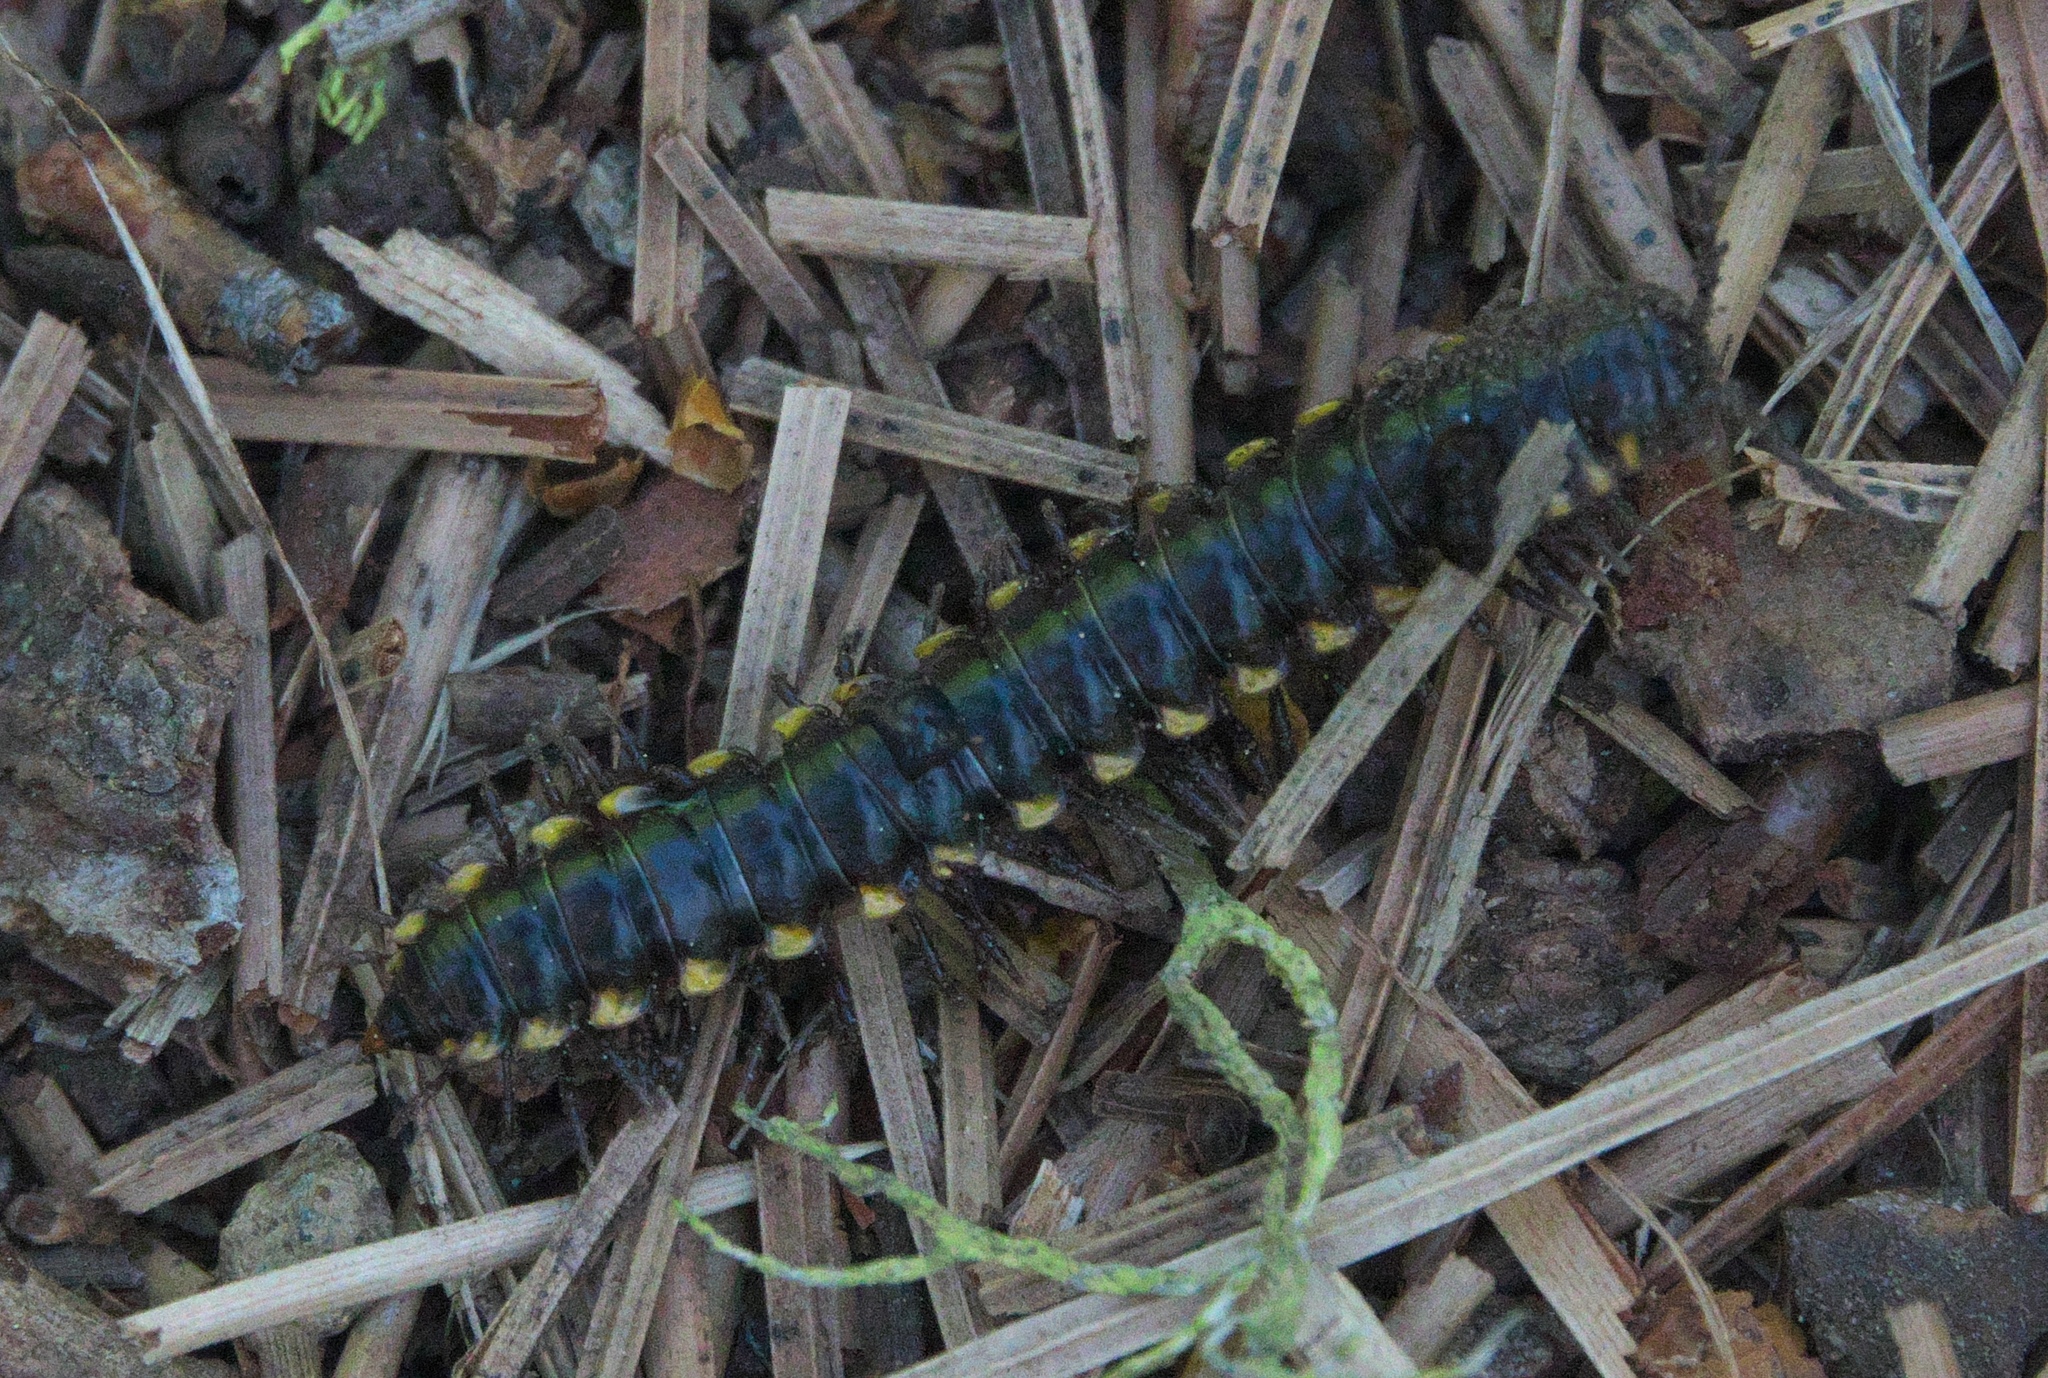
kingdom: Animalia
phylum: Arthropoda
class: Diplopoda
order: Polydesmida
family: Xystodesmidae
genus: Harpaphe
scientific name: Harpaphe haydeniana
